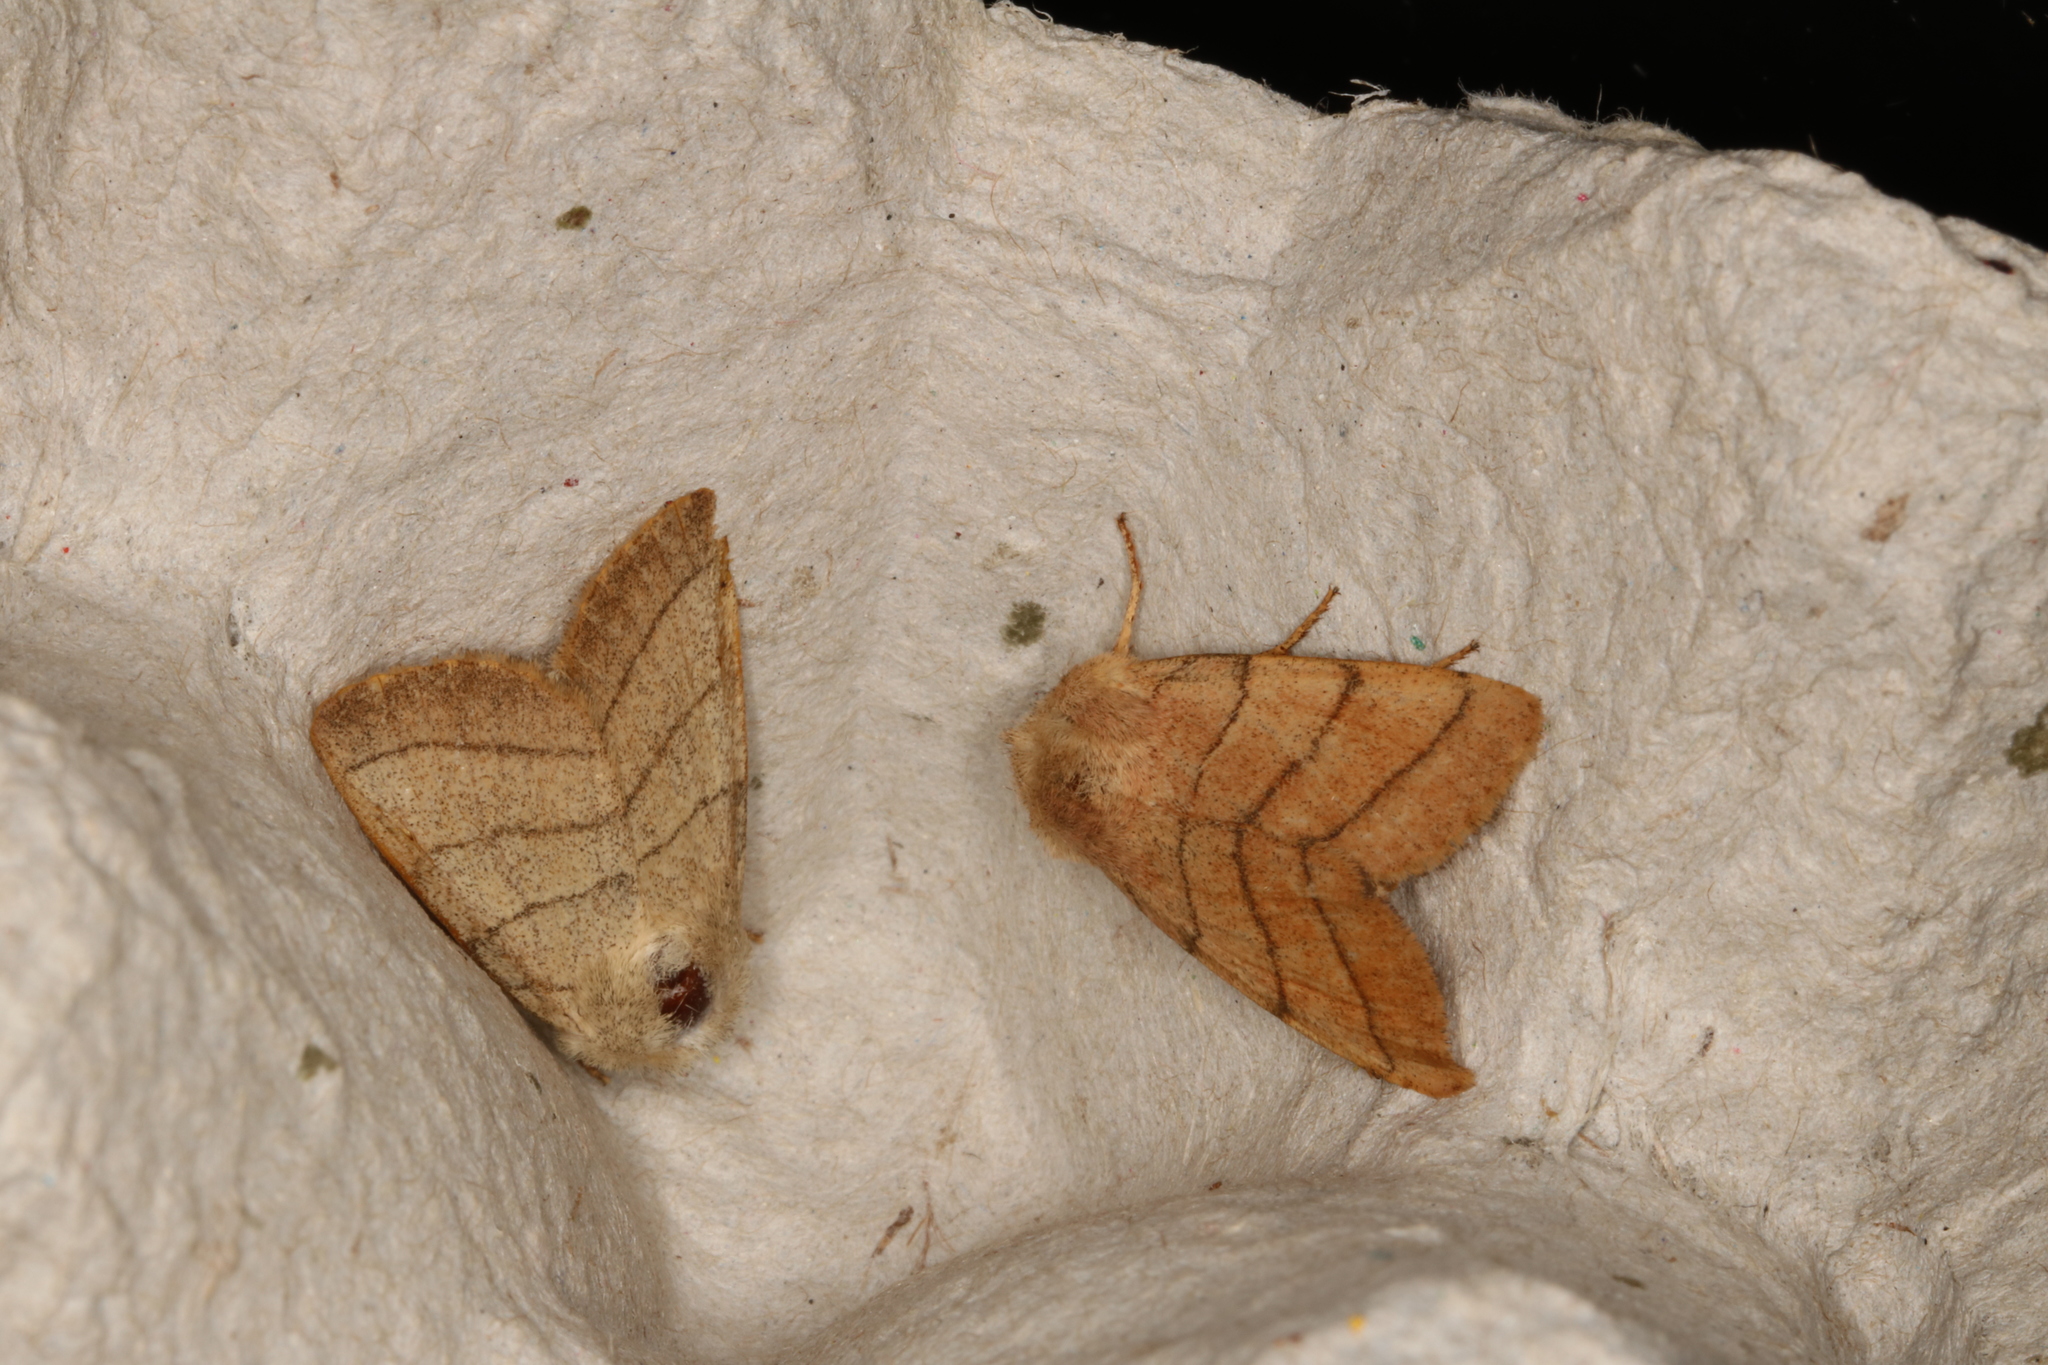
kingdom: Animalia
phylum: Arthropoda
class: Insecta
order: Lepidoptera
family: Noctuidae
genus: Charanyca
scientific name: Charanyca trigrammica
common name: Treble lines
